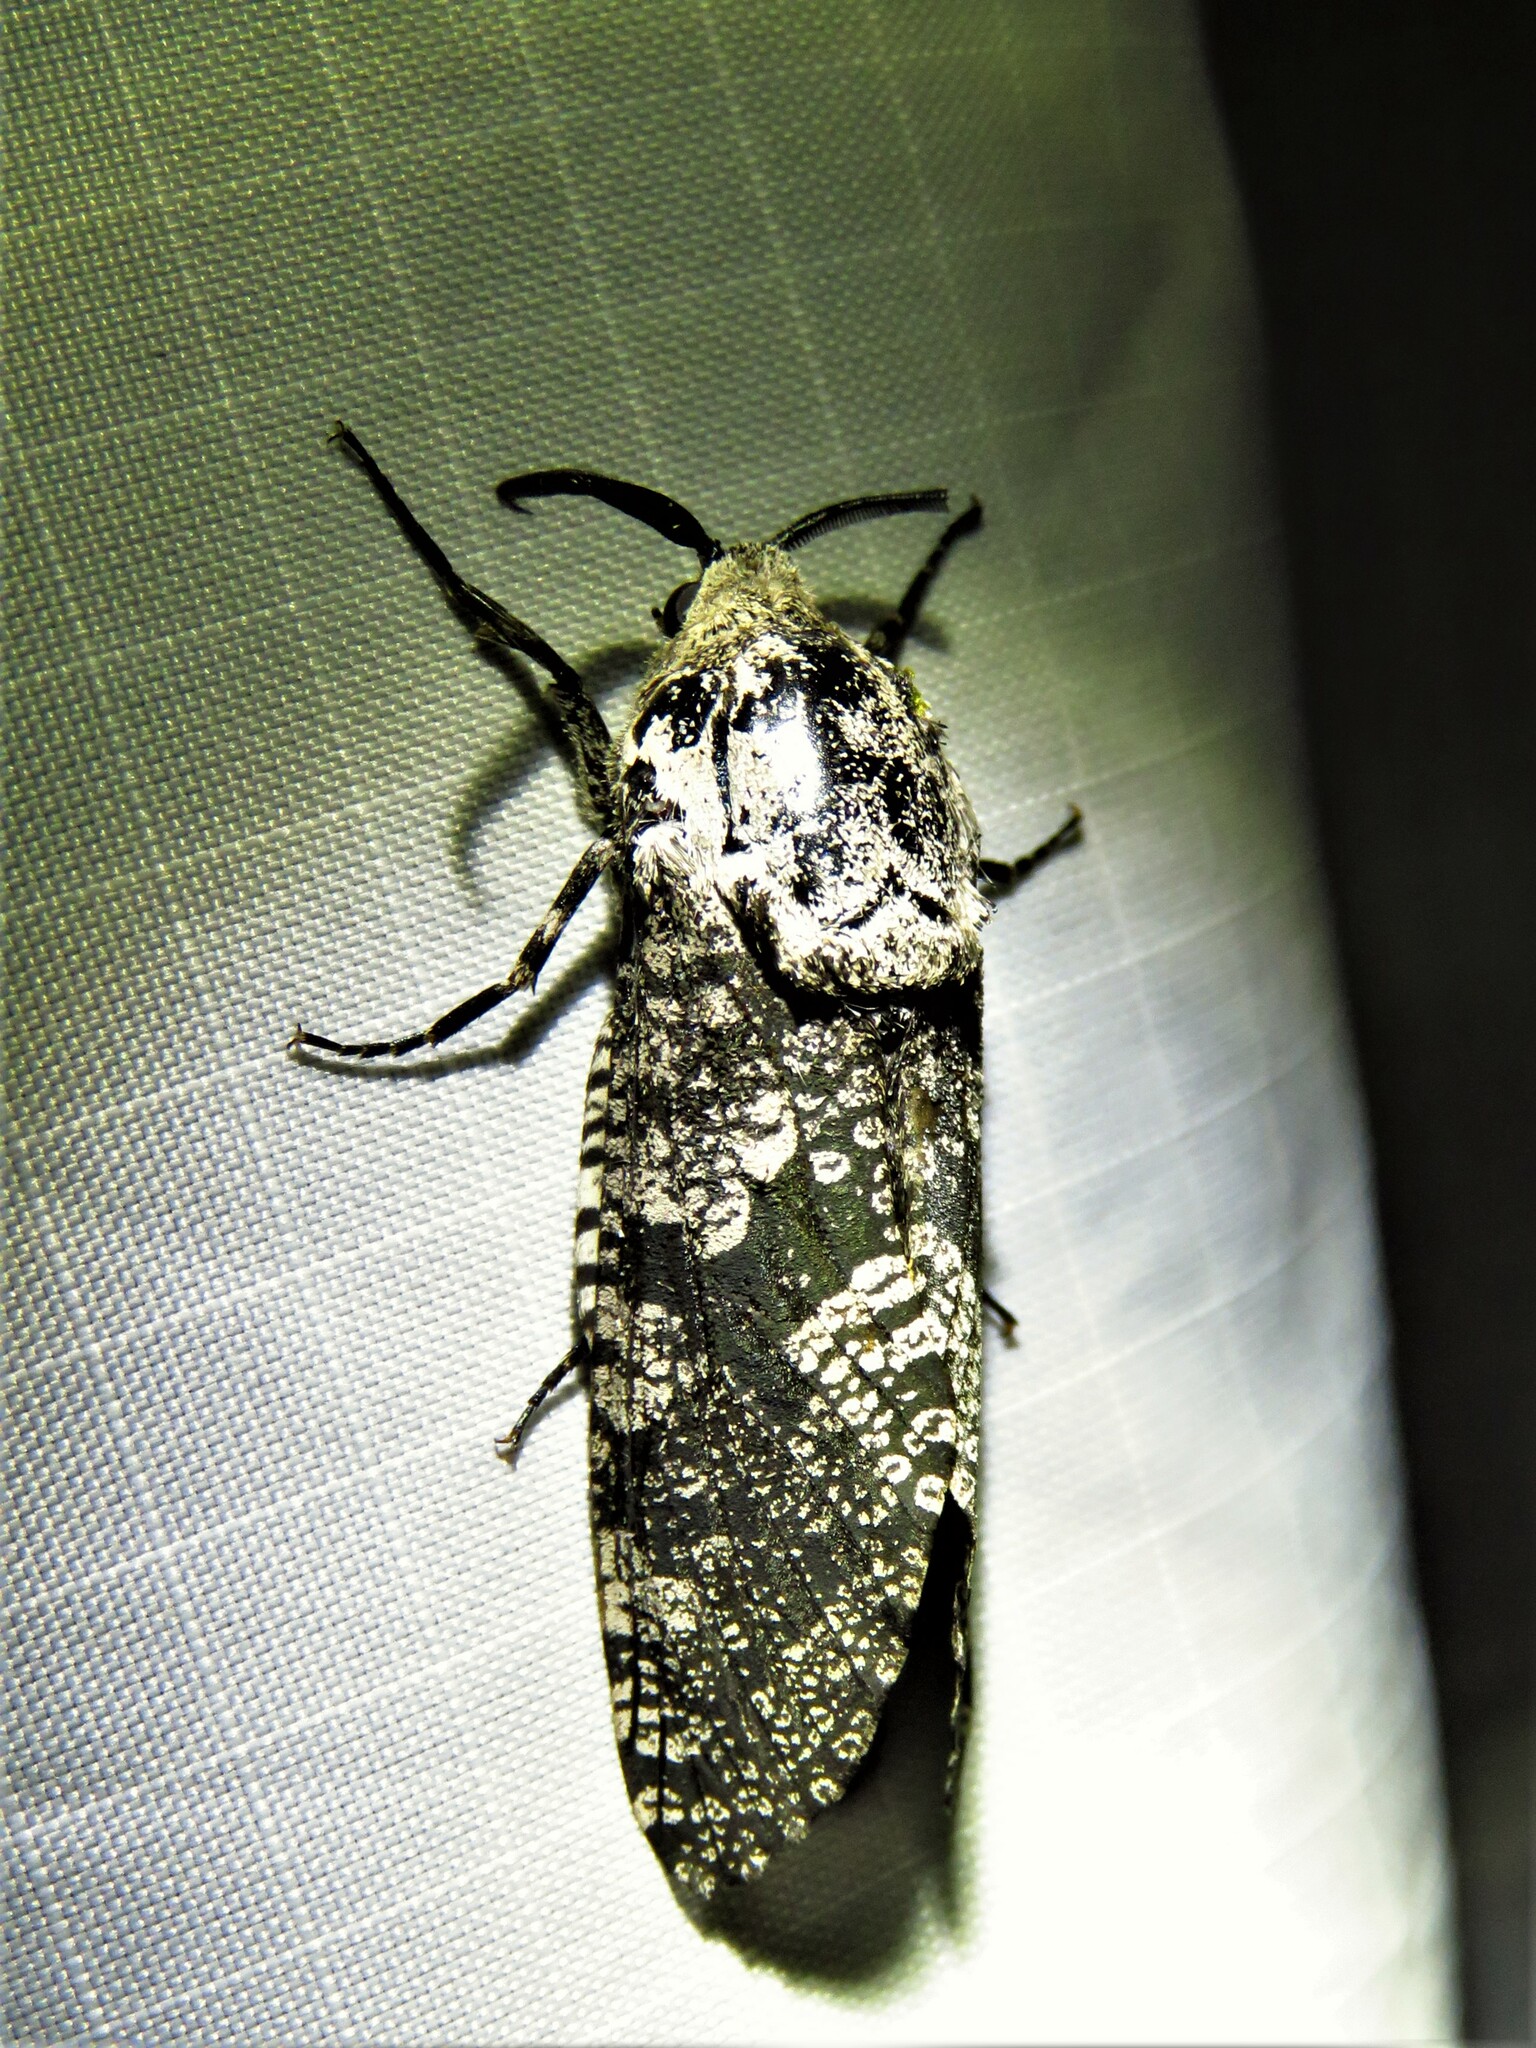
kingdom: Animalia
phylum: Arthropoda
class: Insecta
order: Lepidoptera
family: Cossidae
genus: Prionoxystus
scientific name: Prionoxystus robiniae
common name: Carpenterworm
